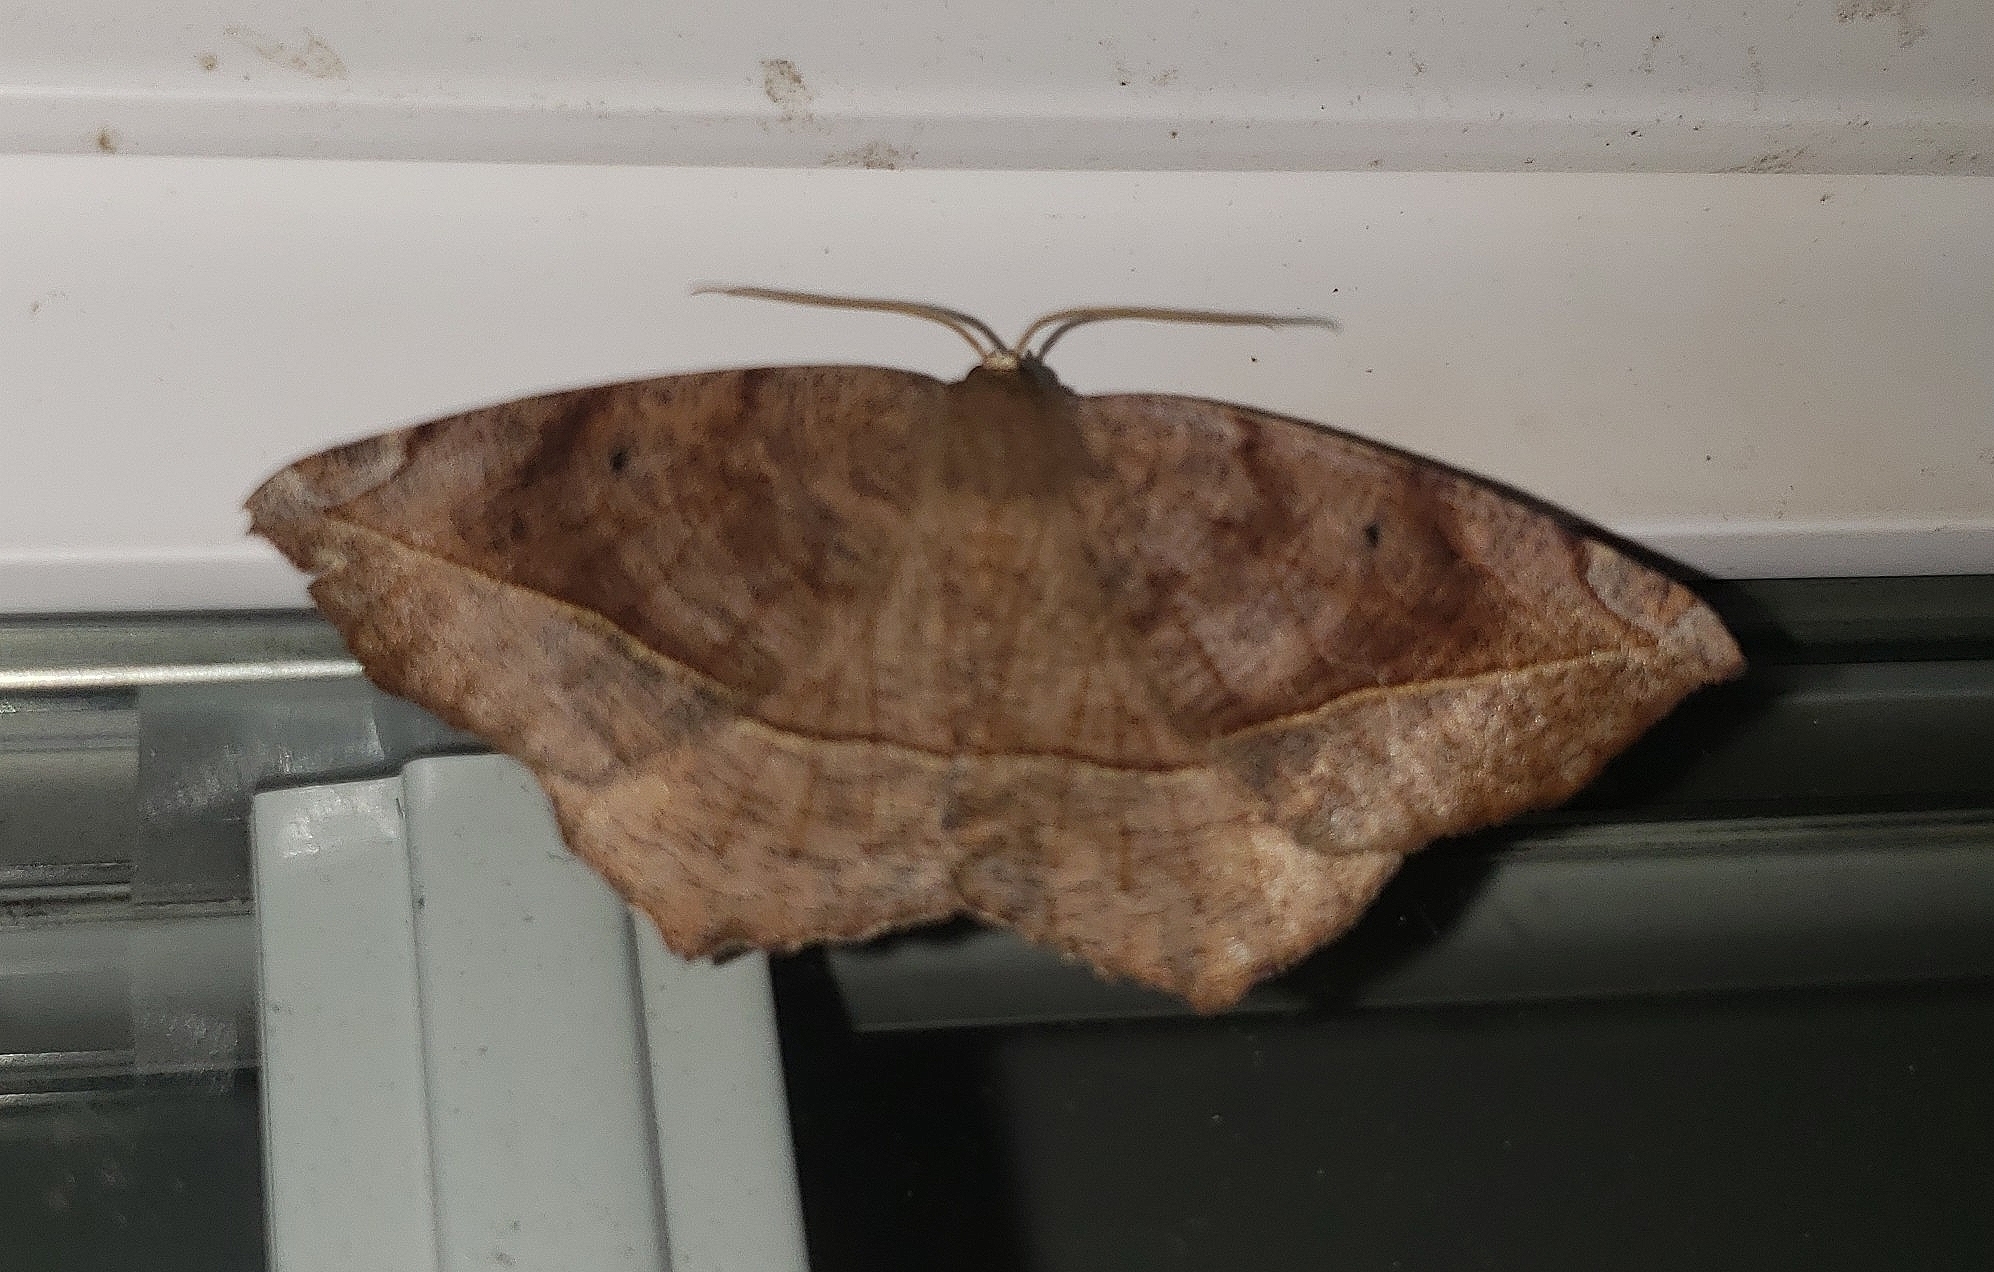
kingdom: Animalia
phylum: Arthropoda
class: Insecta
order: Lepidoptera
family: Geometridae
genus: Eutrapela
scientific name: Eutrapela clemataria
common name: Curved-toothed geometer
